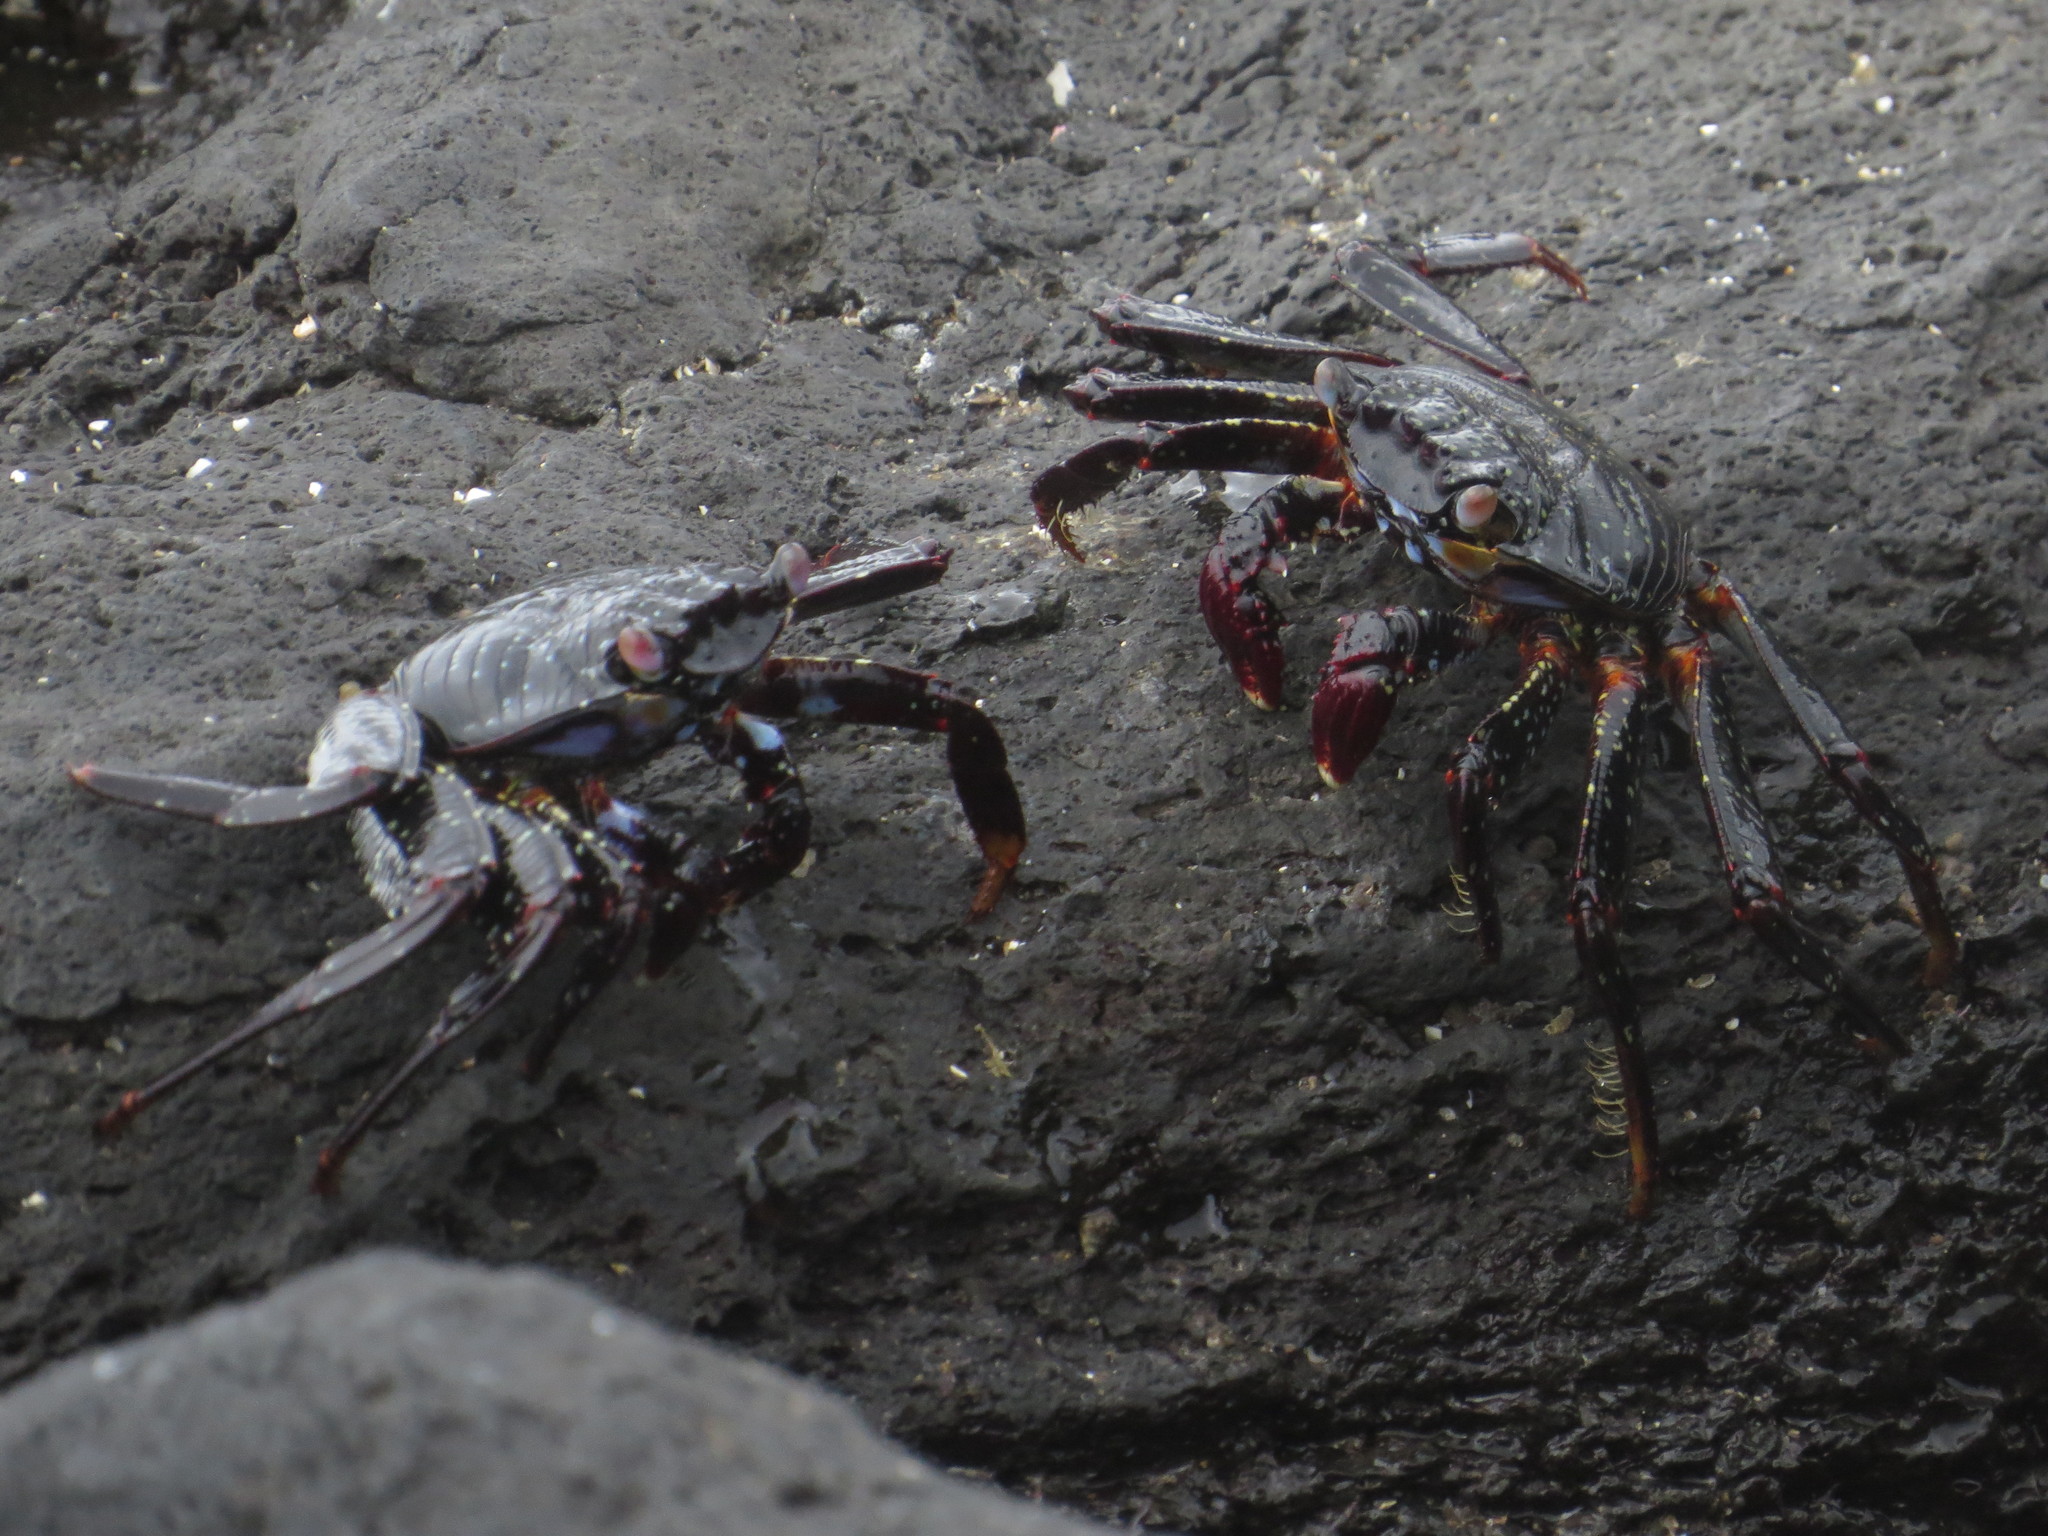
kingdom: Animalia
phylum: Arthropoda
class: Malacostraca
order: Decapoda
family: Grapsidae
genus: Grapsus
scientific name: Grapsus grapsus
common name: Sally lightfoot
